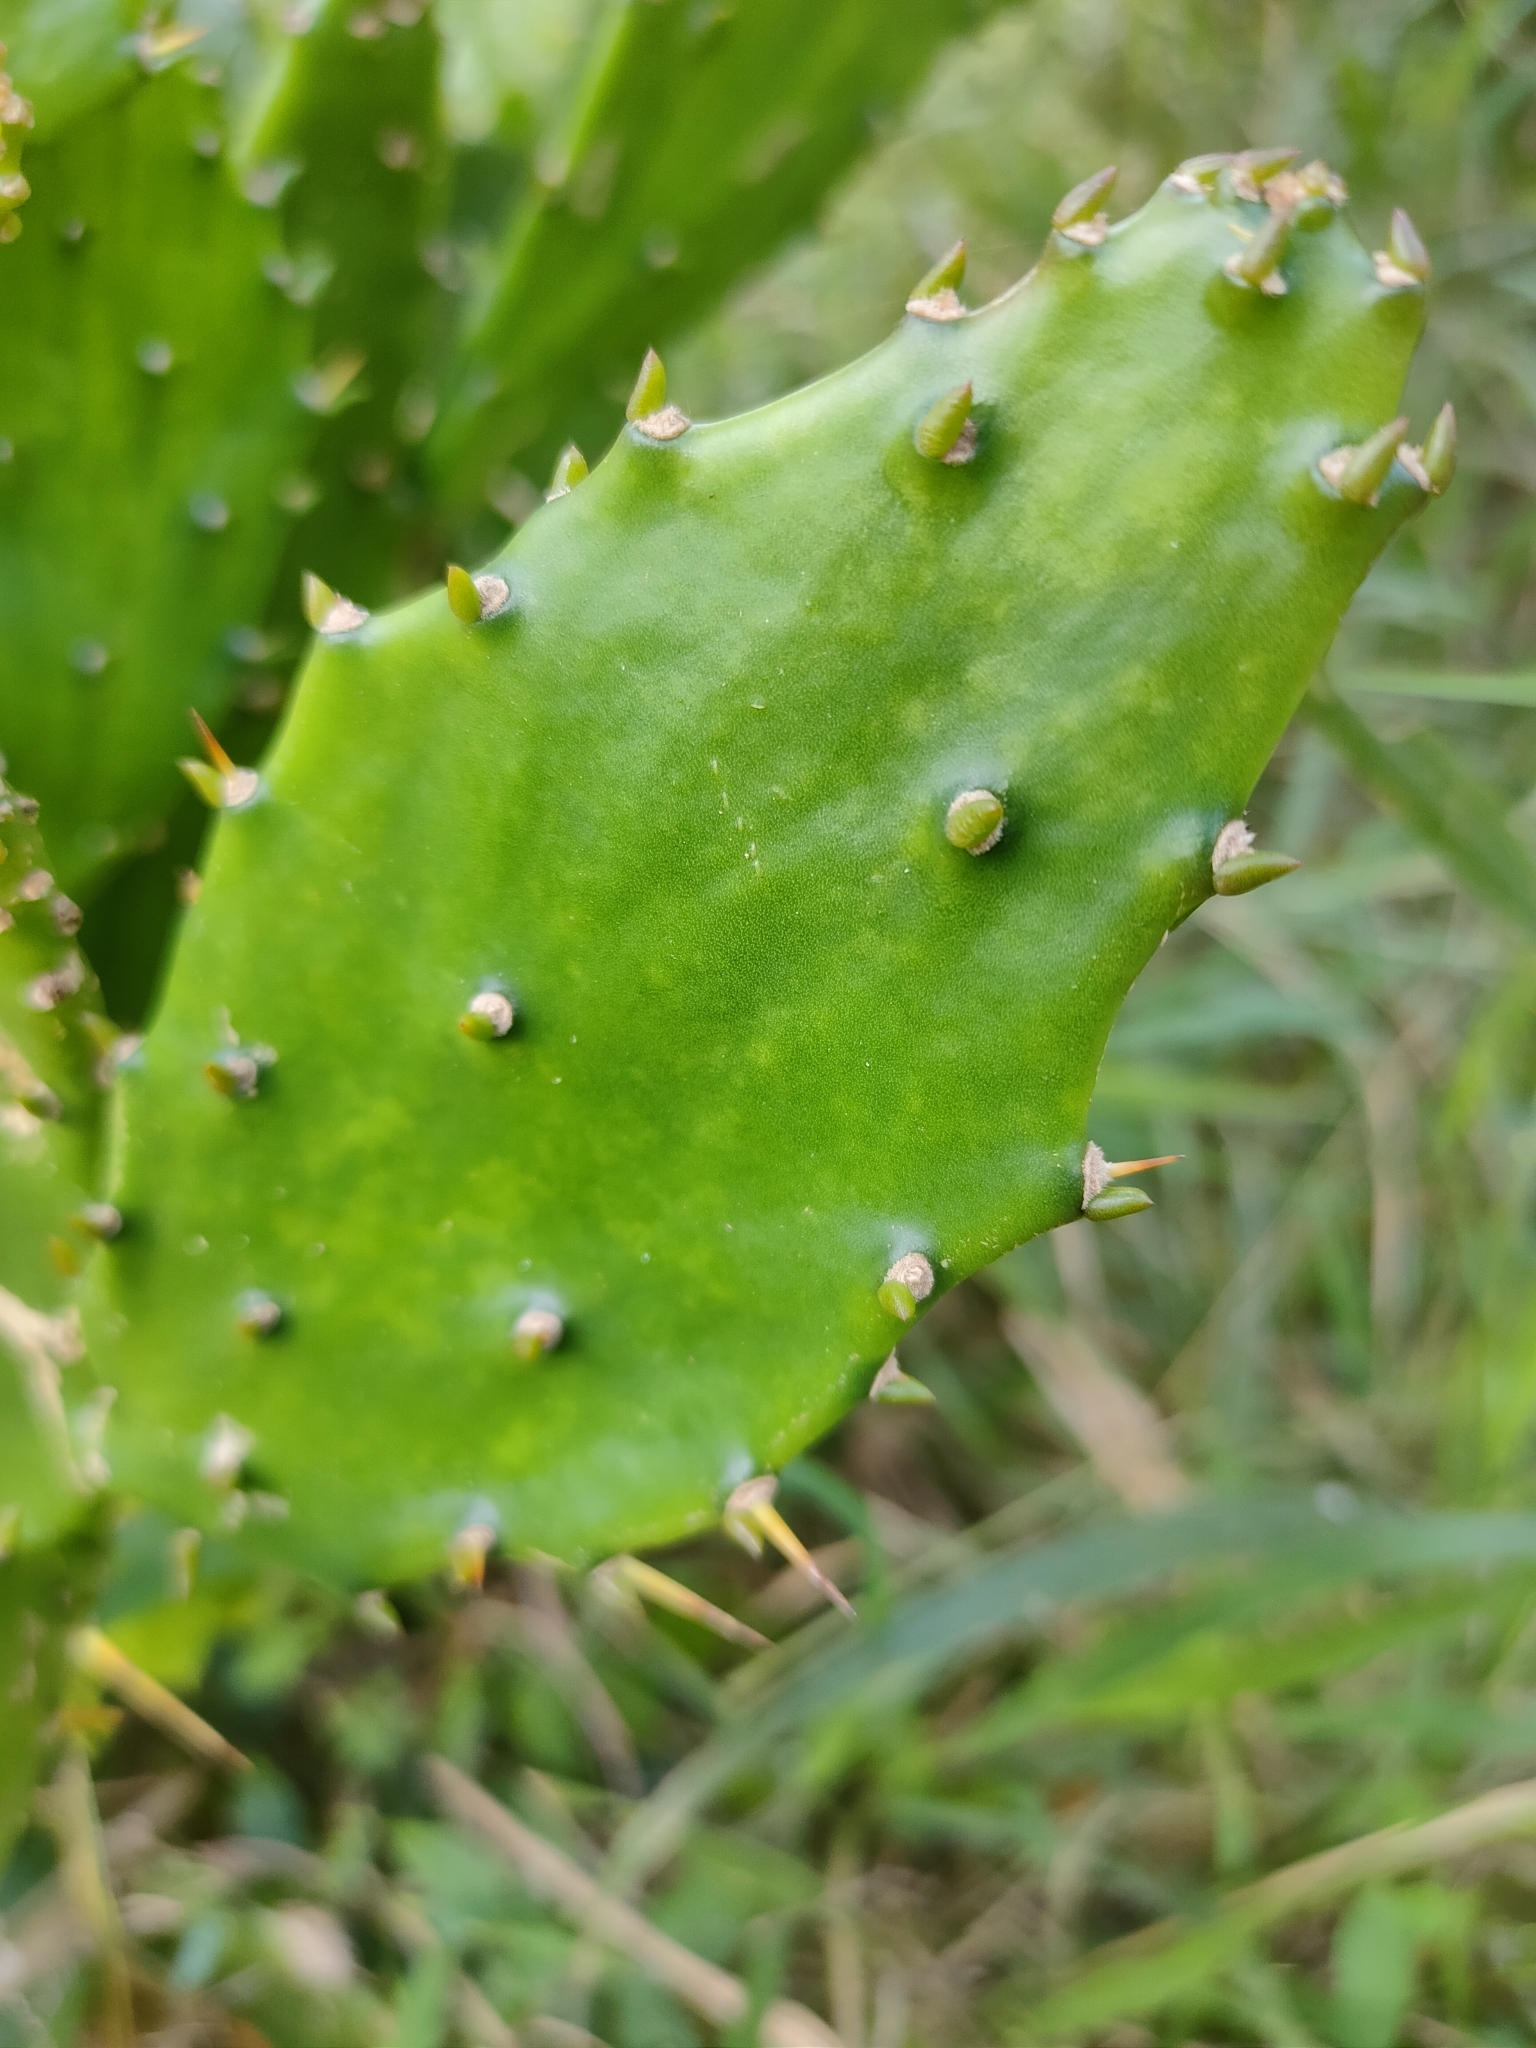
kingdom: Plantae
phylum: Tracheophyta
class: Magnoliopsida
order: Caryophyllales
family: Cactaceae
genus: Opuntia
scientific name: Opuntia monacantha
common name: Common pricklypear
